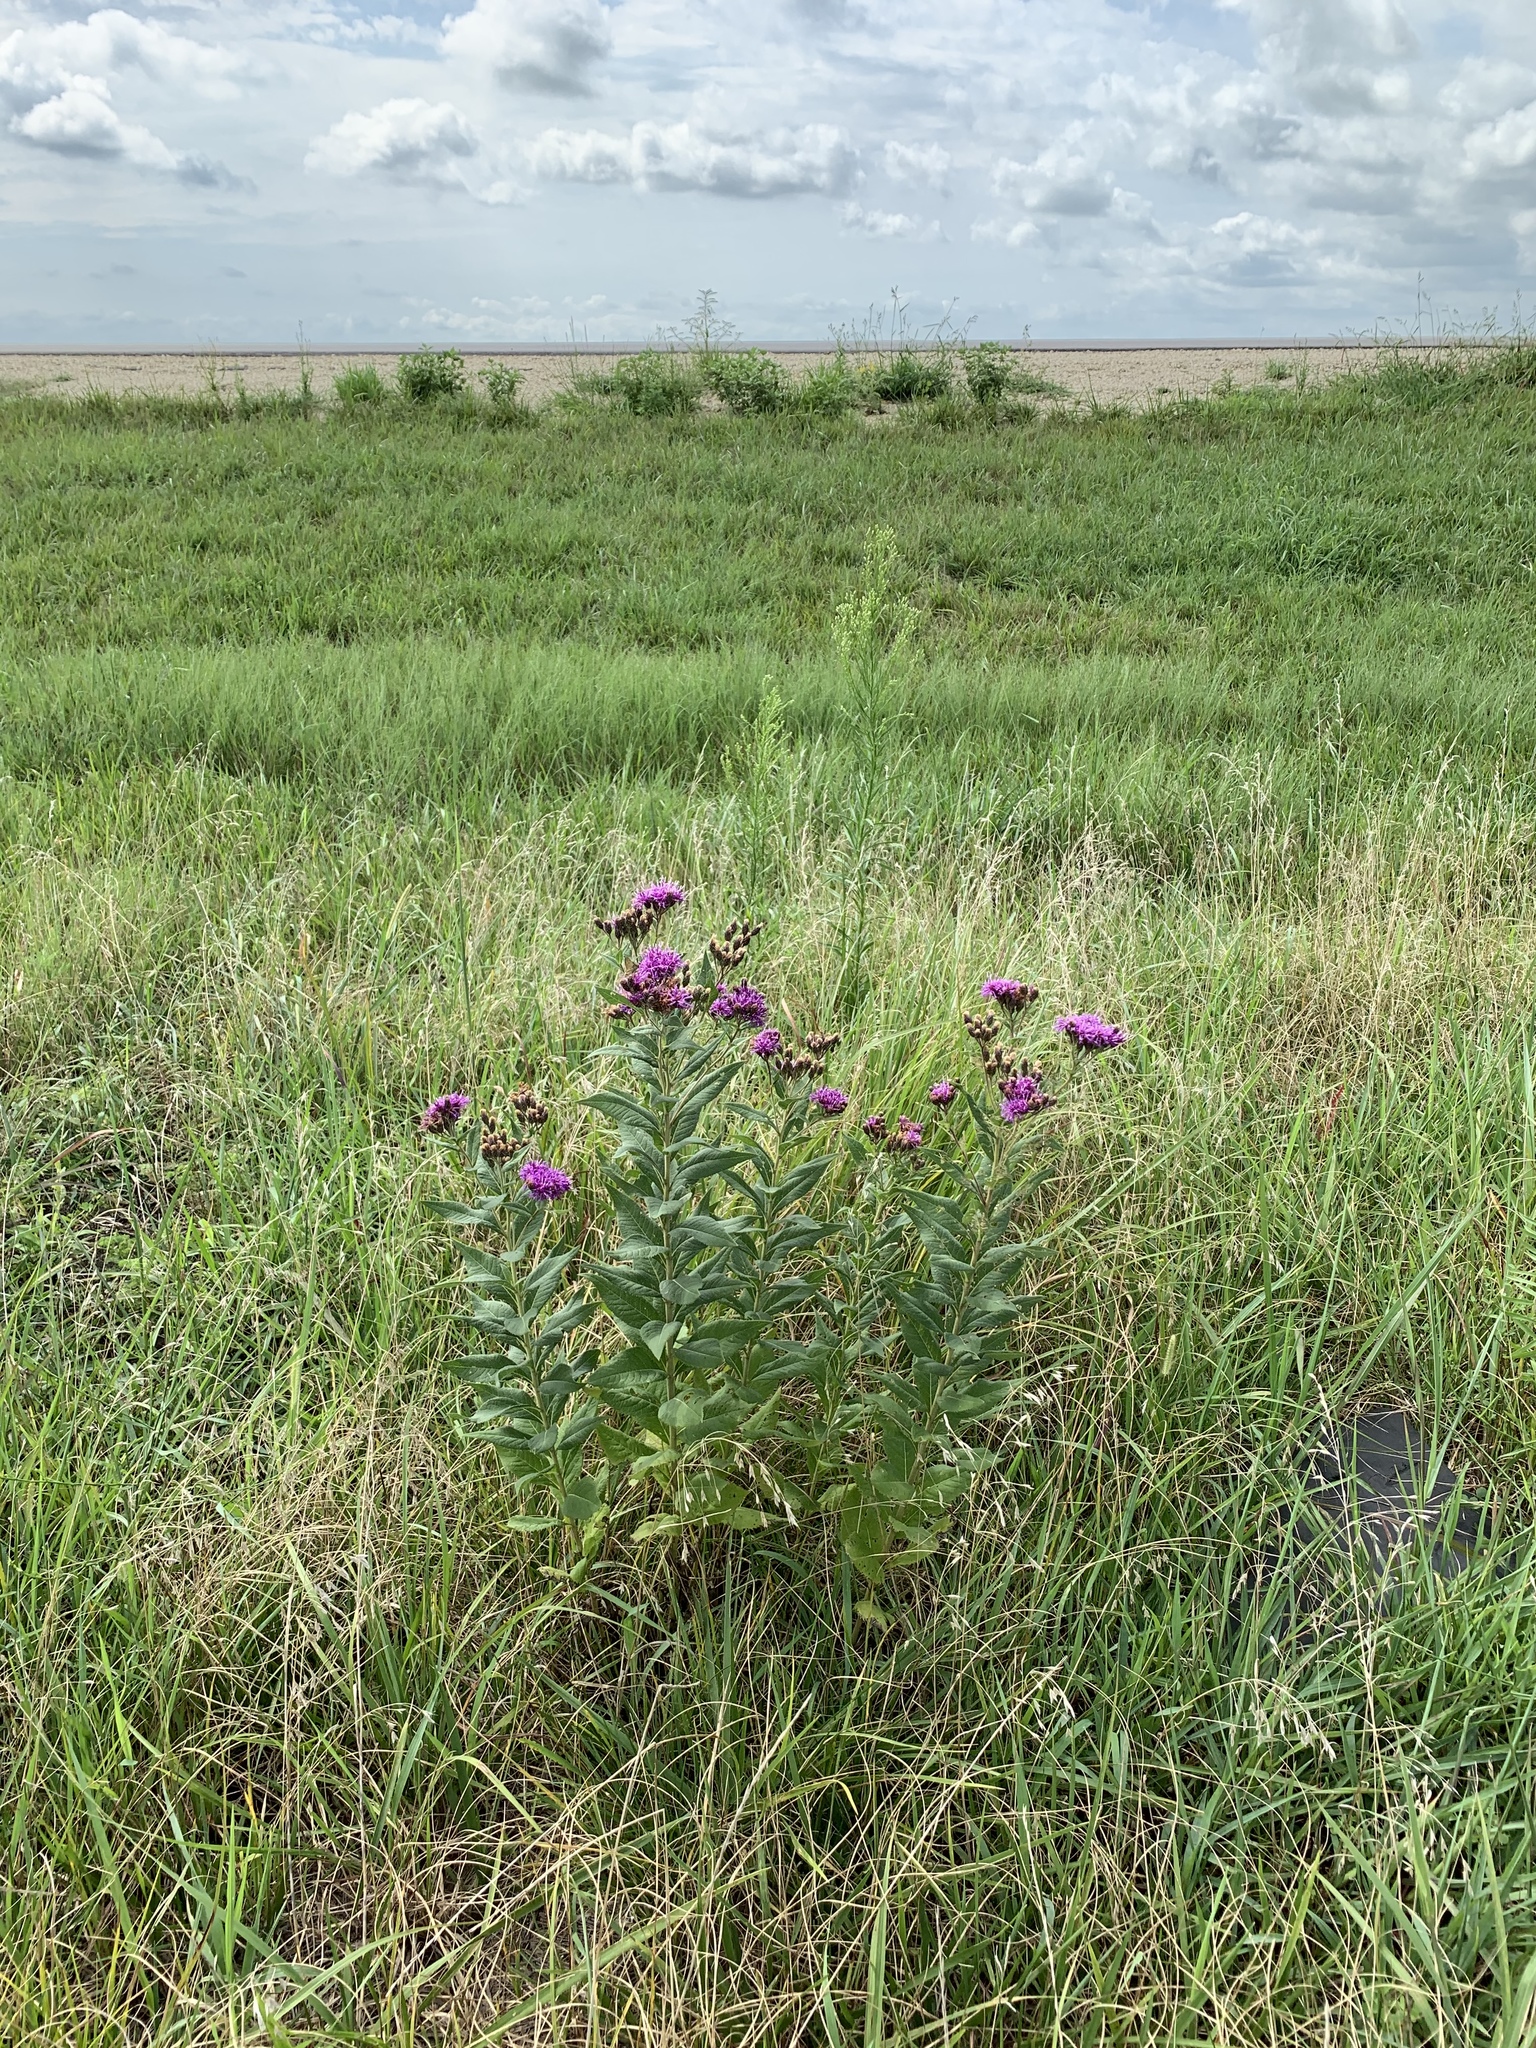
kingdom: Plantae
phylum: Tracheophyta
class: Magnoliopsida
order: Asterales
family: Asteraceae
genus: Vernonia
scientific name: Vernonia baldwinii
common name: Western ironweed
